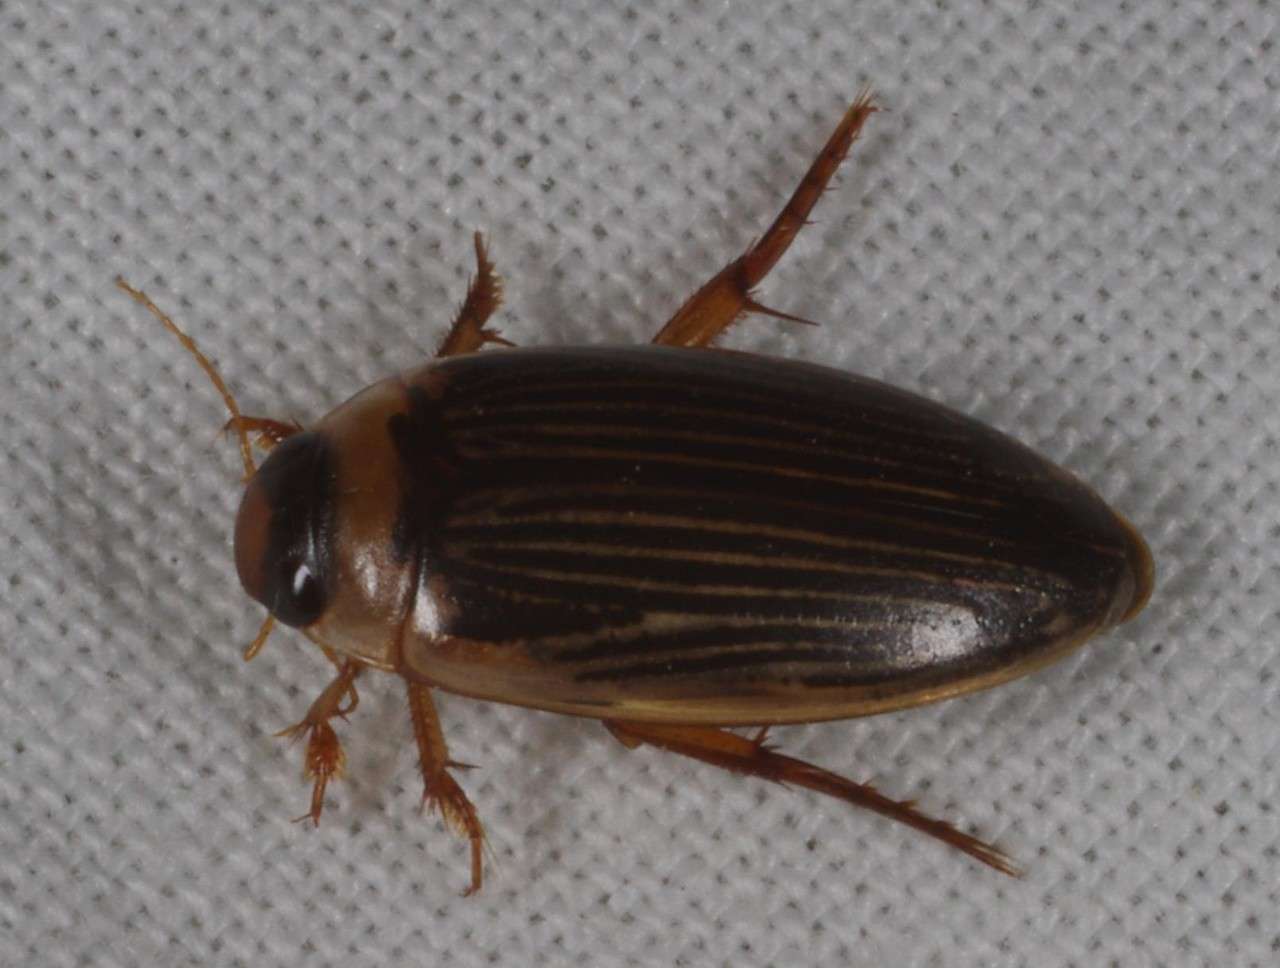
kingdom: Animalia
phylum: Arthropoda
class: Insecta
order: Coleoptera
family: Dytiscidae
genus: Lancetes
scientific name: Lancetes lanceolatus
